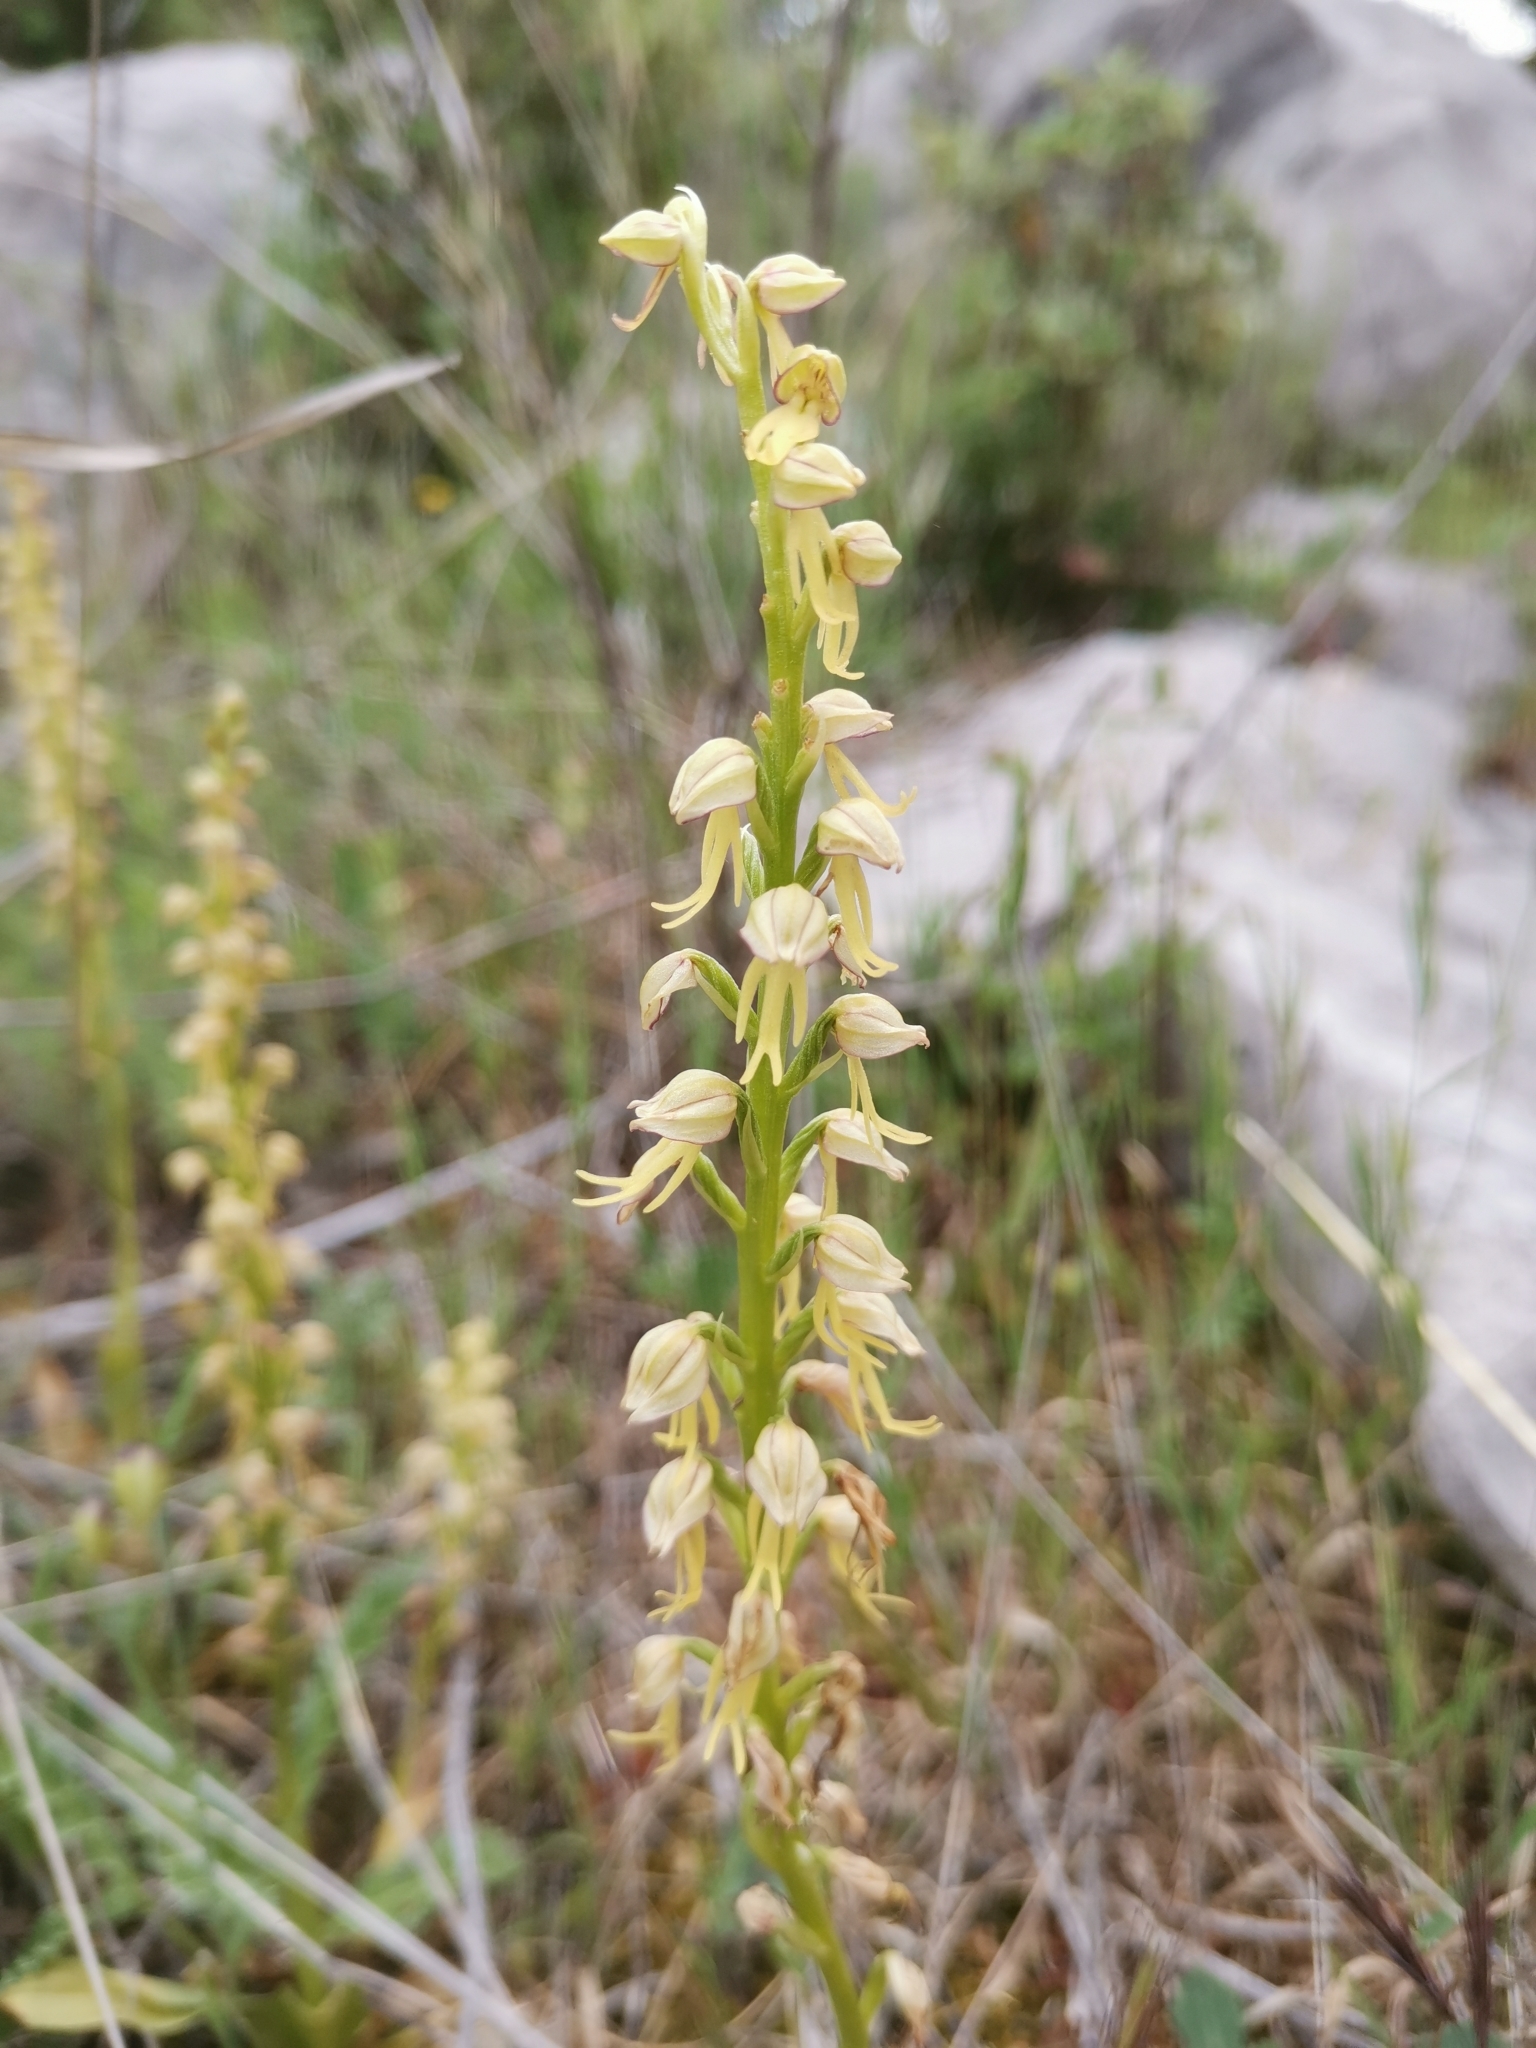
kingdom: Plantae
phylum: Tracheophyta
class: Liliopsida
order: Asparagales
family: Orchidaceae
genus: Orchis
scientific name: Orchis anthropophora
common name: Man orchid
